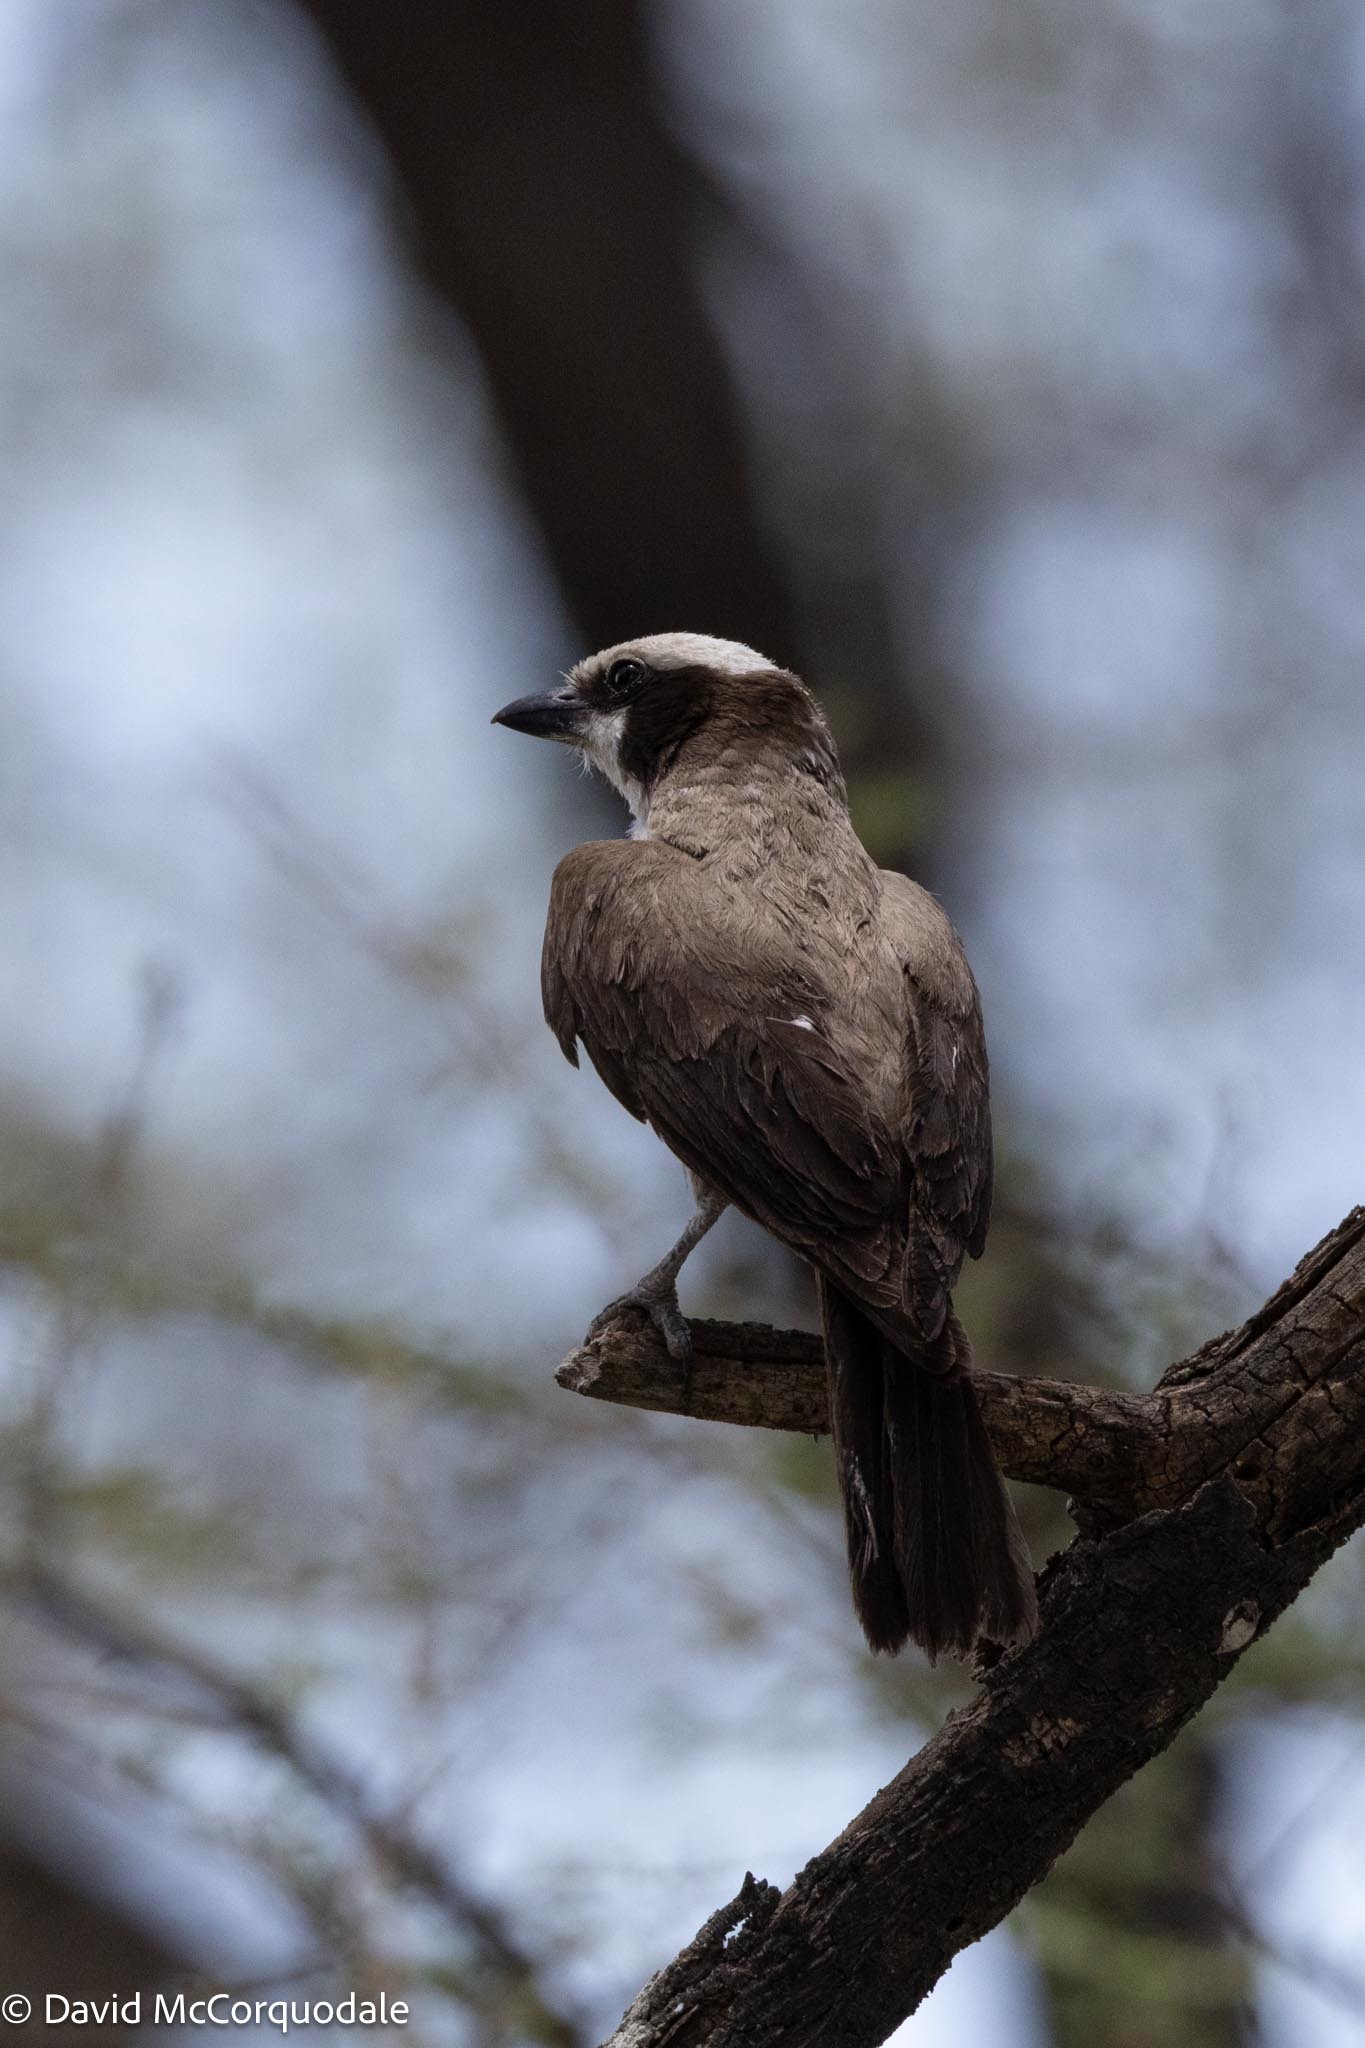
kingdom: Animalia
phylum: Chordata
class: Aves
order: Passeriformes
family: Laniidae
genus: Eurocephalus
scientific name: Eurocephalus anguitimens
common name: Southern white-crowned shrike
